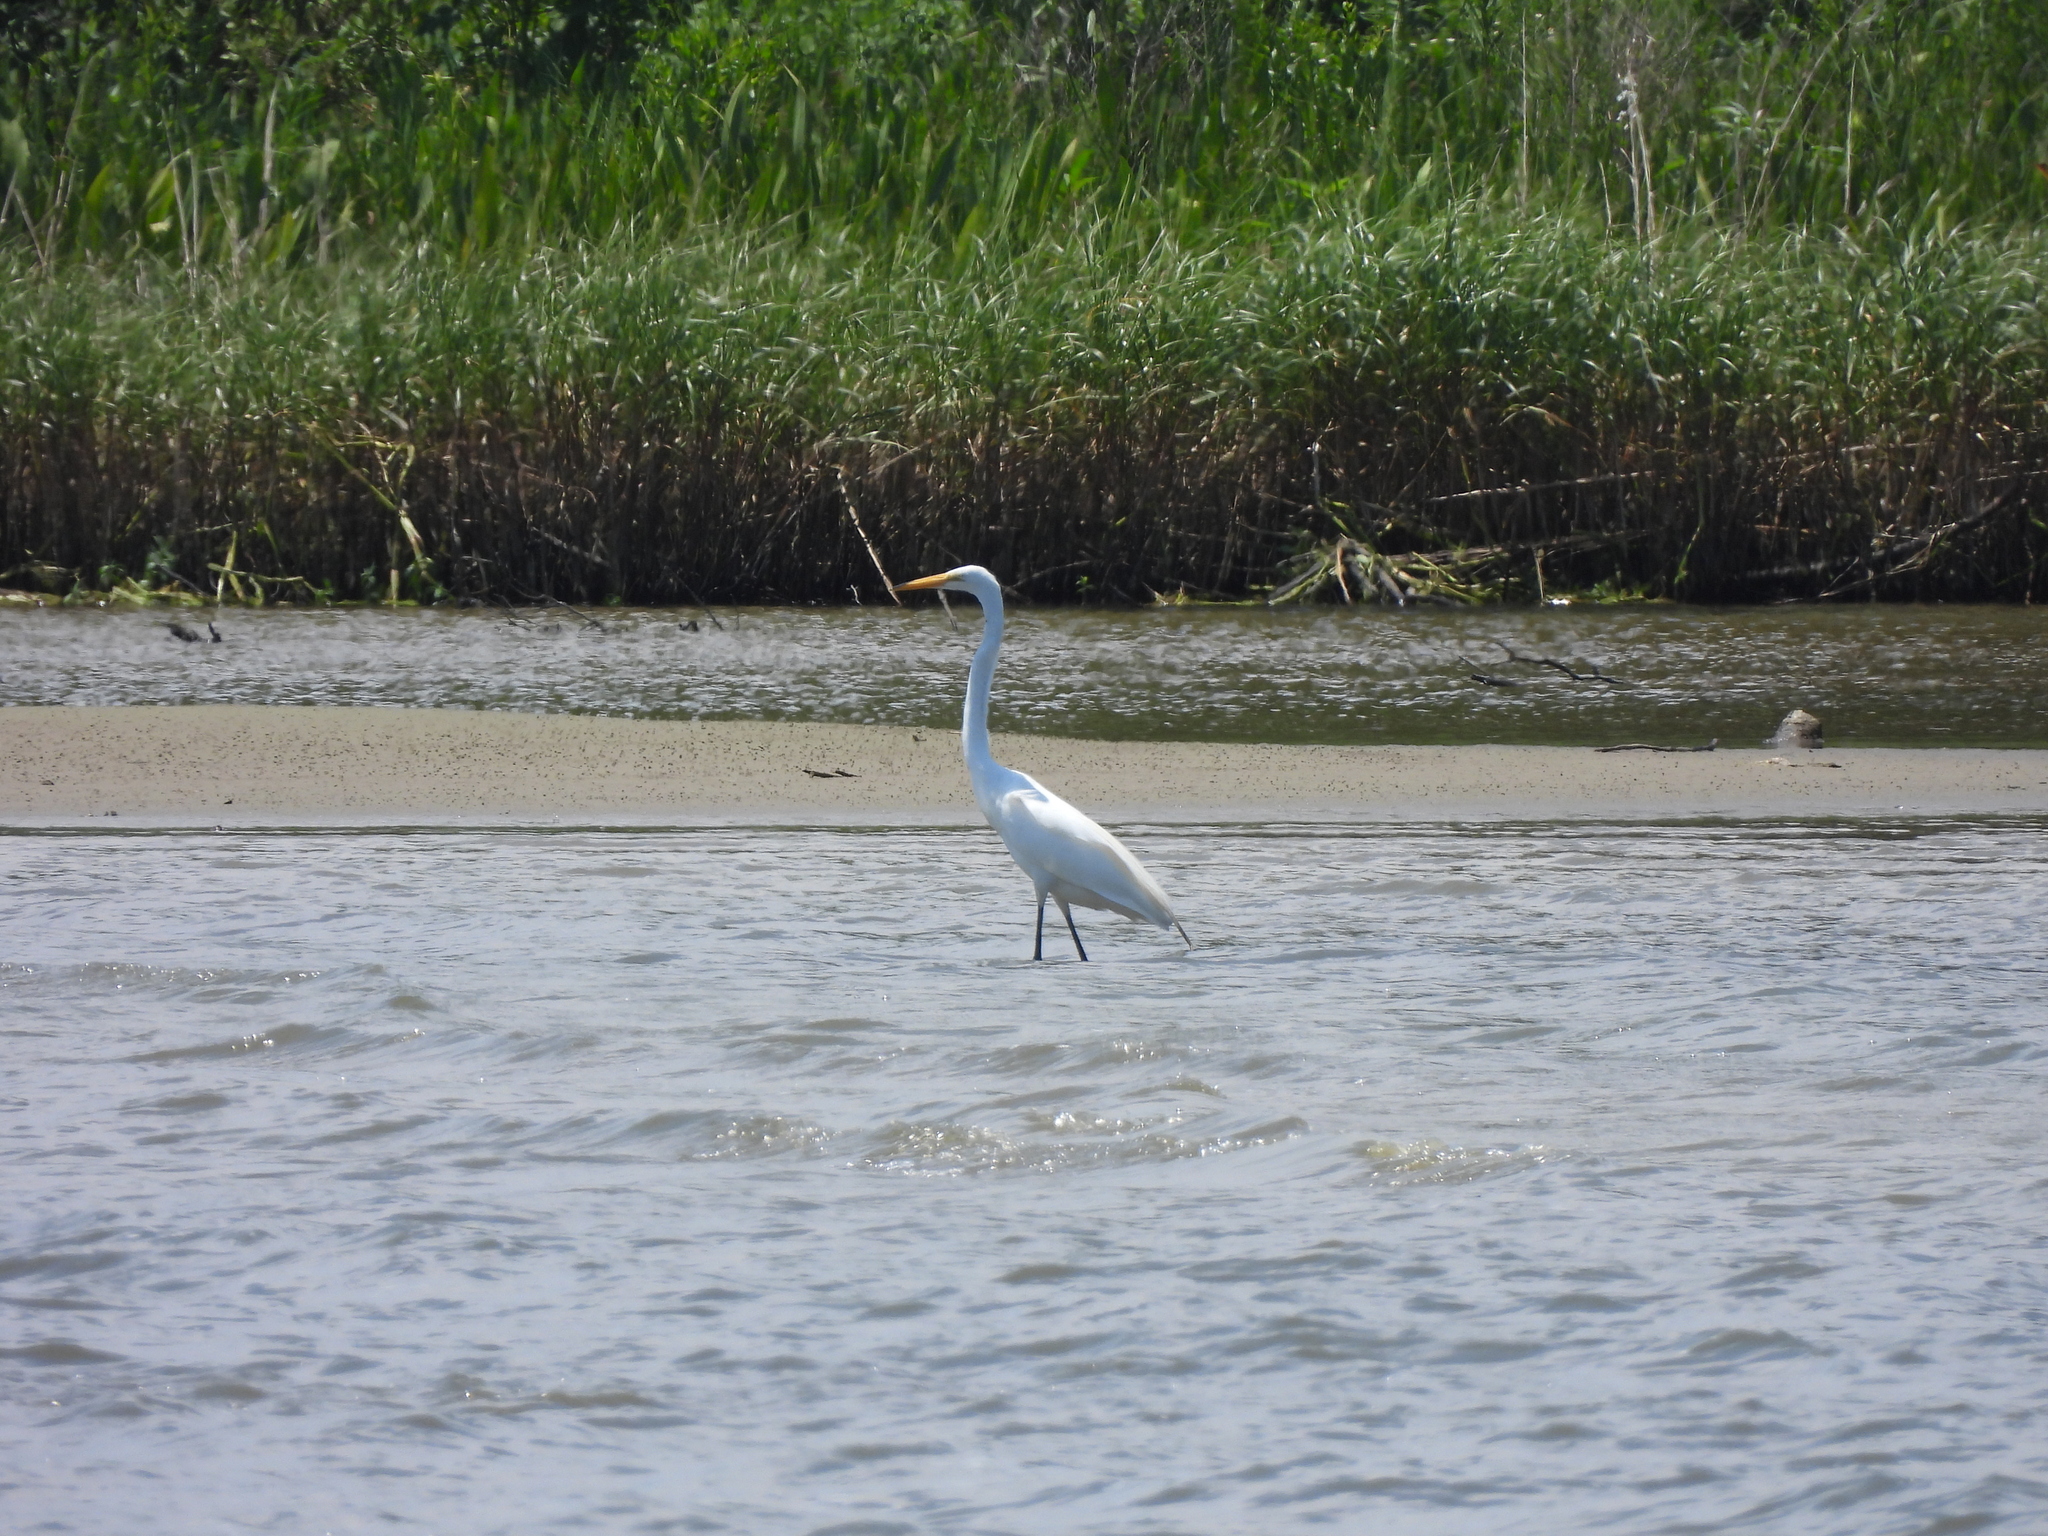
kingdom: Animalia
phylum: Chordata
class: Aves
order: Pelecaniformes
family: Ardeidae
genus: Ardea
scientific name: Ardea alba
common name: Great egret
